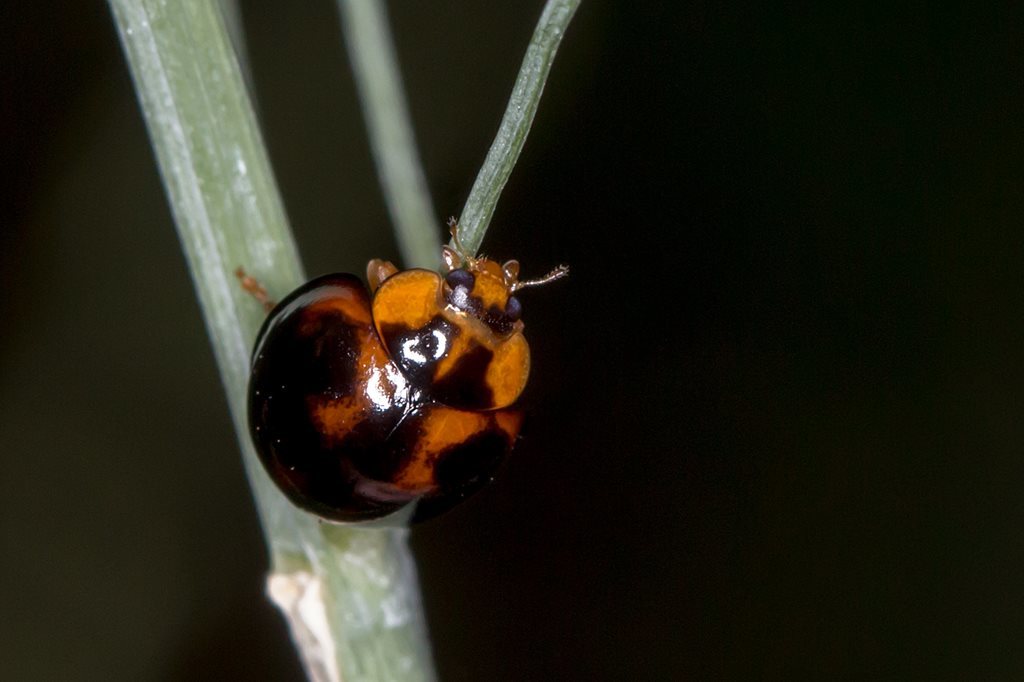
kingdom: Animalia
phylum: Arthropoda
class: Insecta
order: Coleoptera
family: Coccinellidae
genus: Coelophora
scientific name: Coelophora inaequalis
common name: Common australian lady beetle
